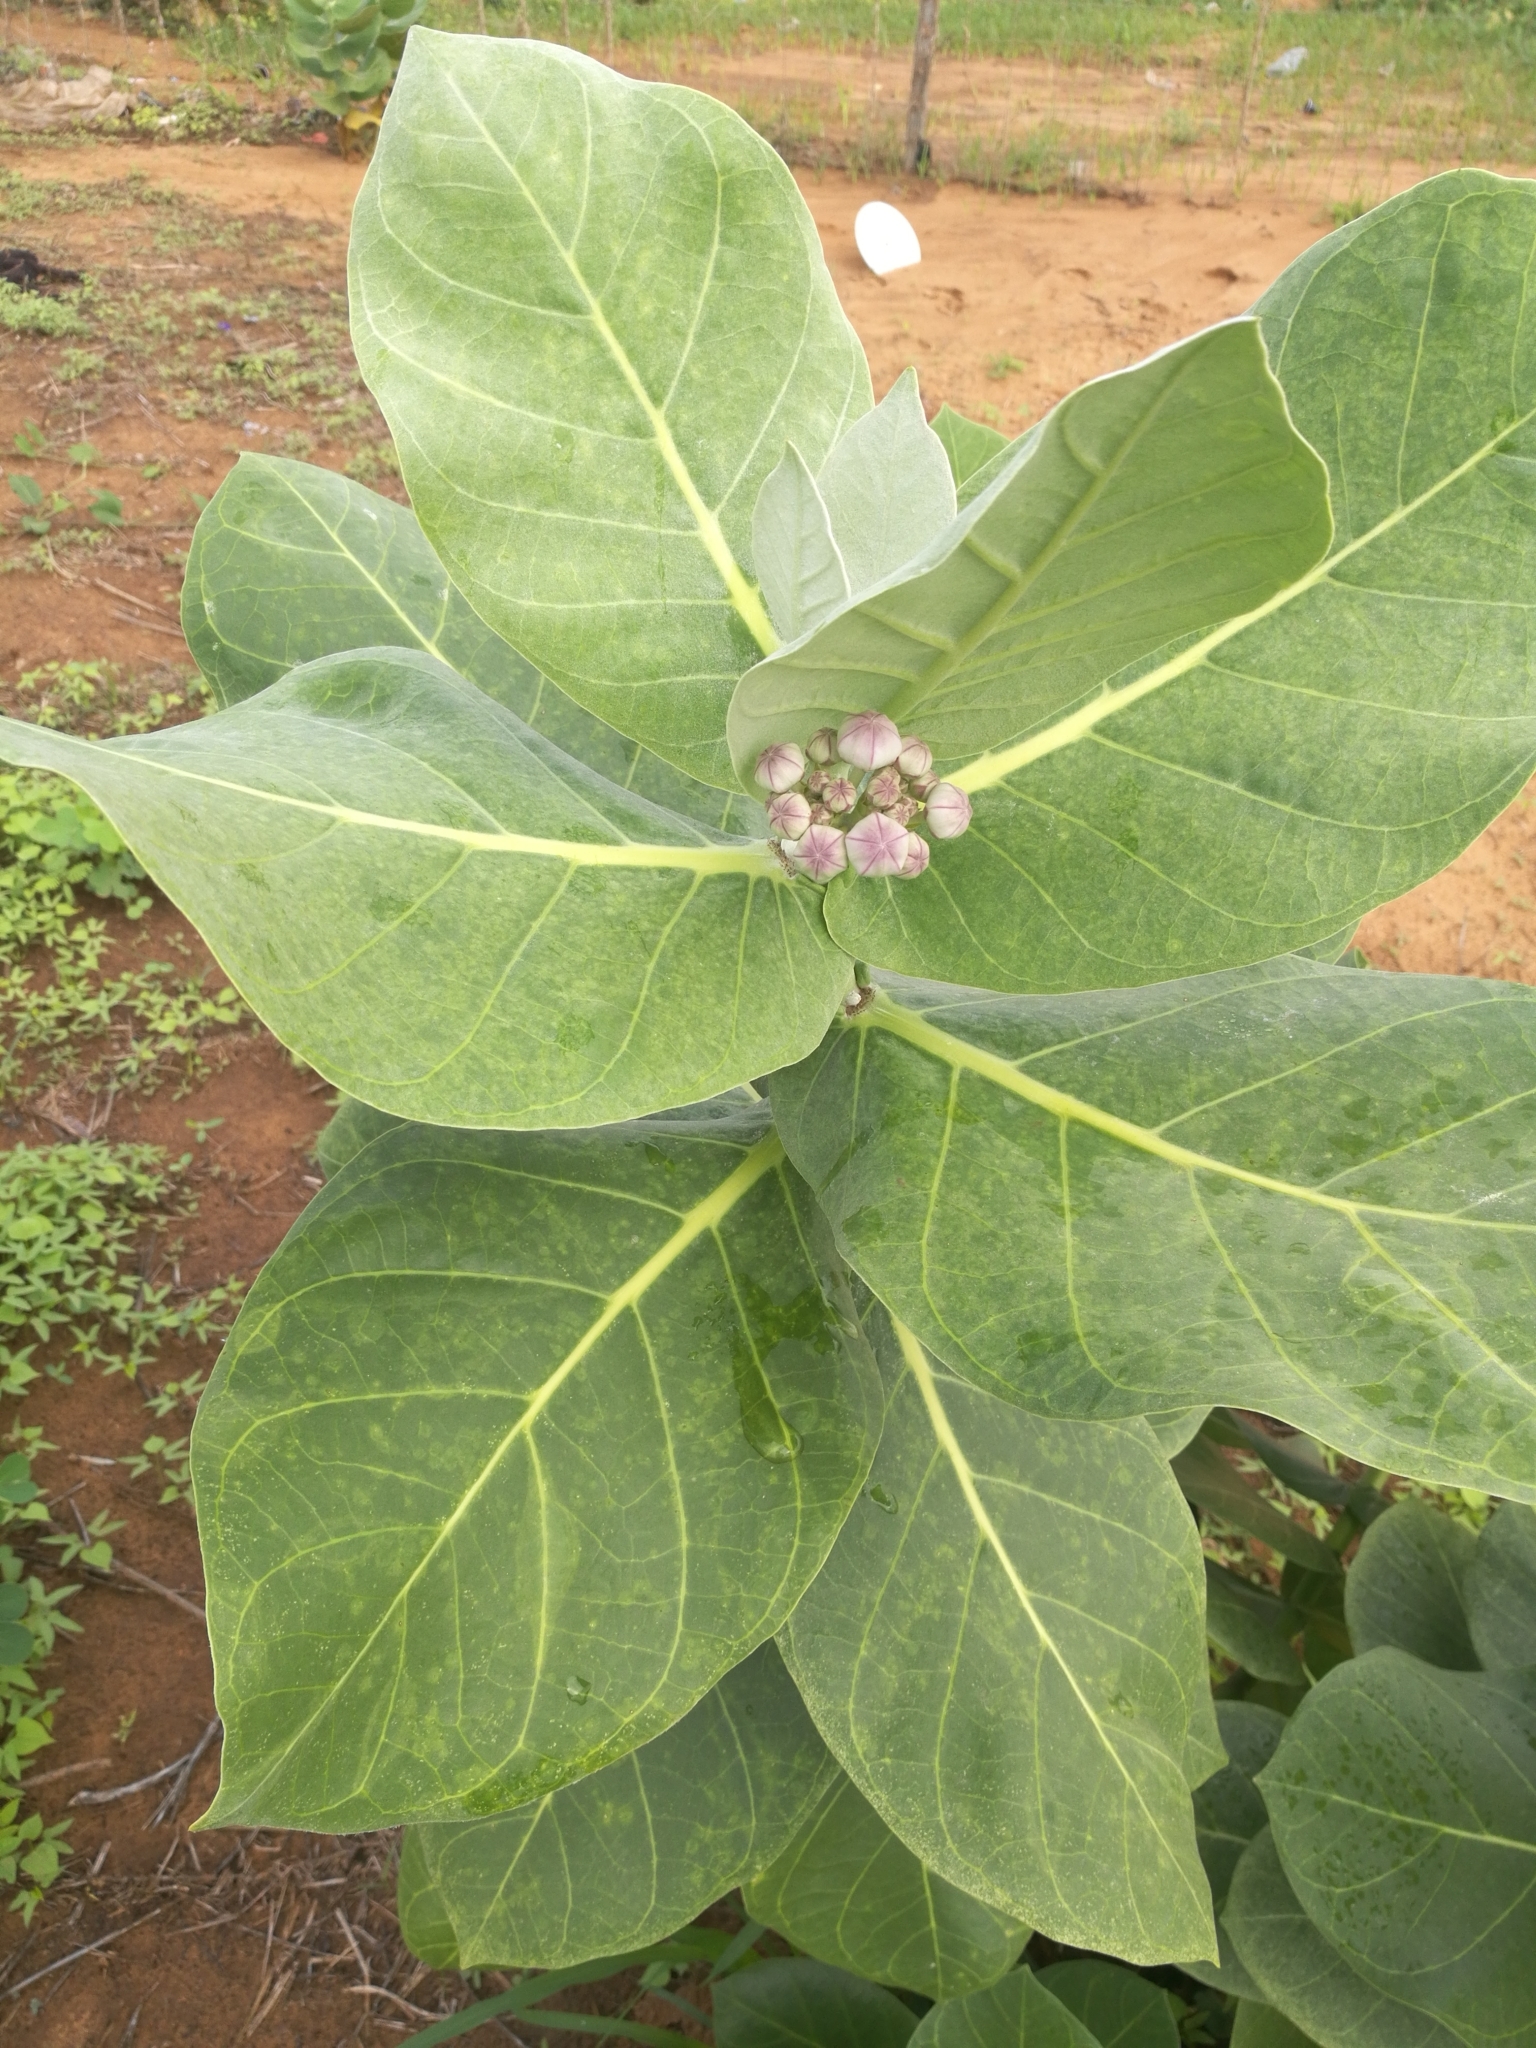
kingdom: Plantae
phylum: Tracheophyta
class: Magnoliopsida
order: Gentianales
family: Apocynaceae
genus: Calotropis
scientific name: Calotropis procera
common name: Roostertree
